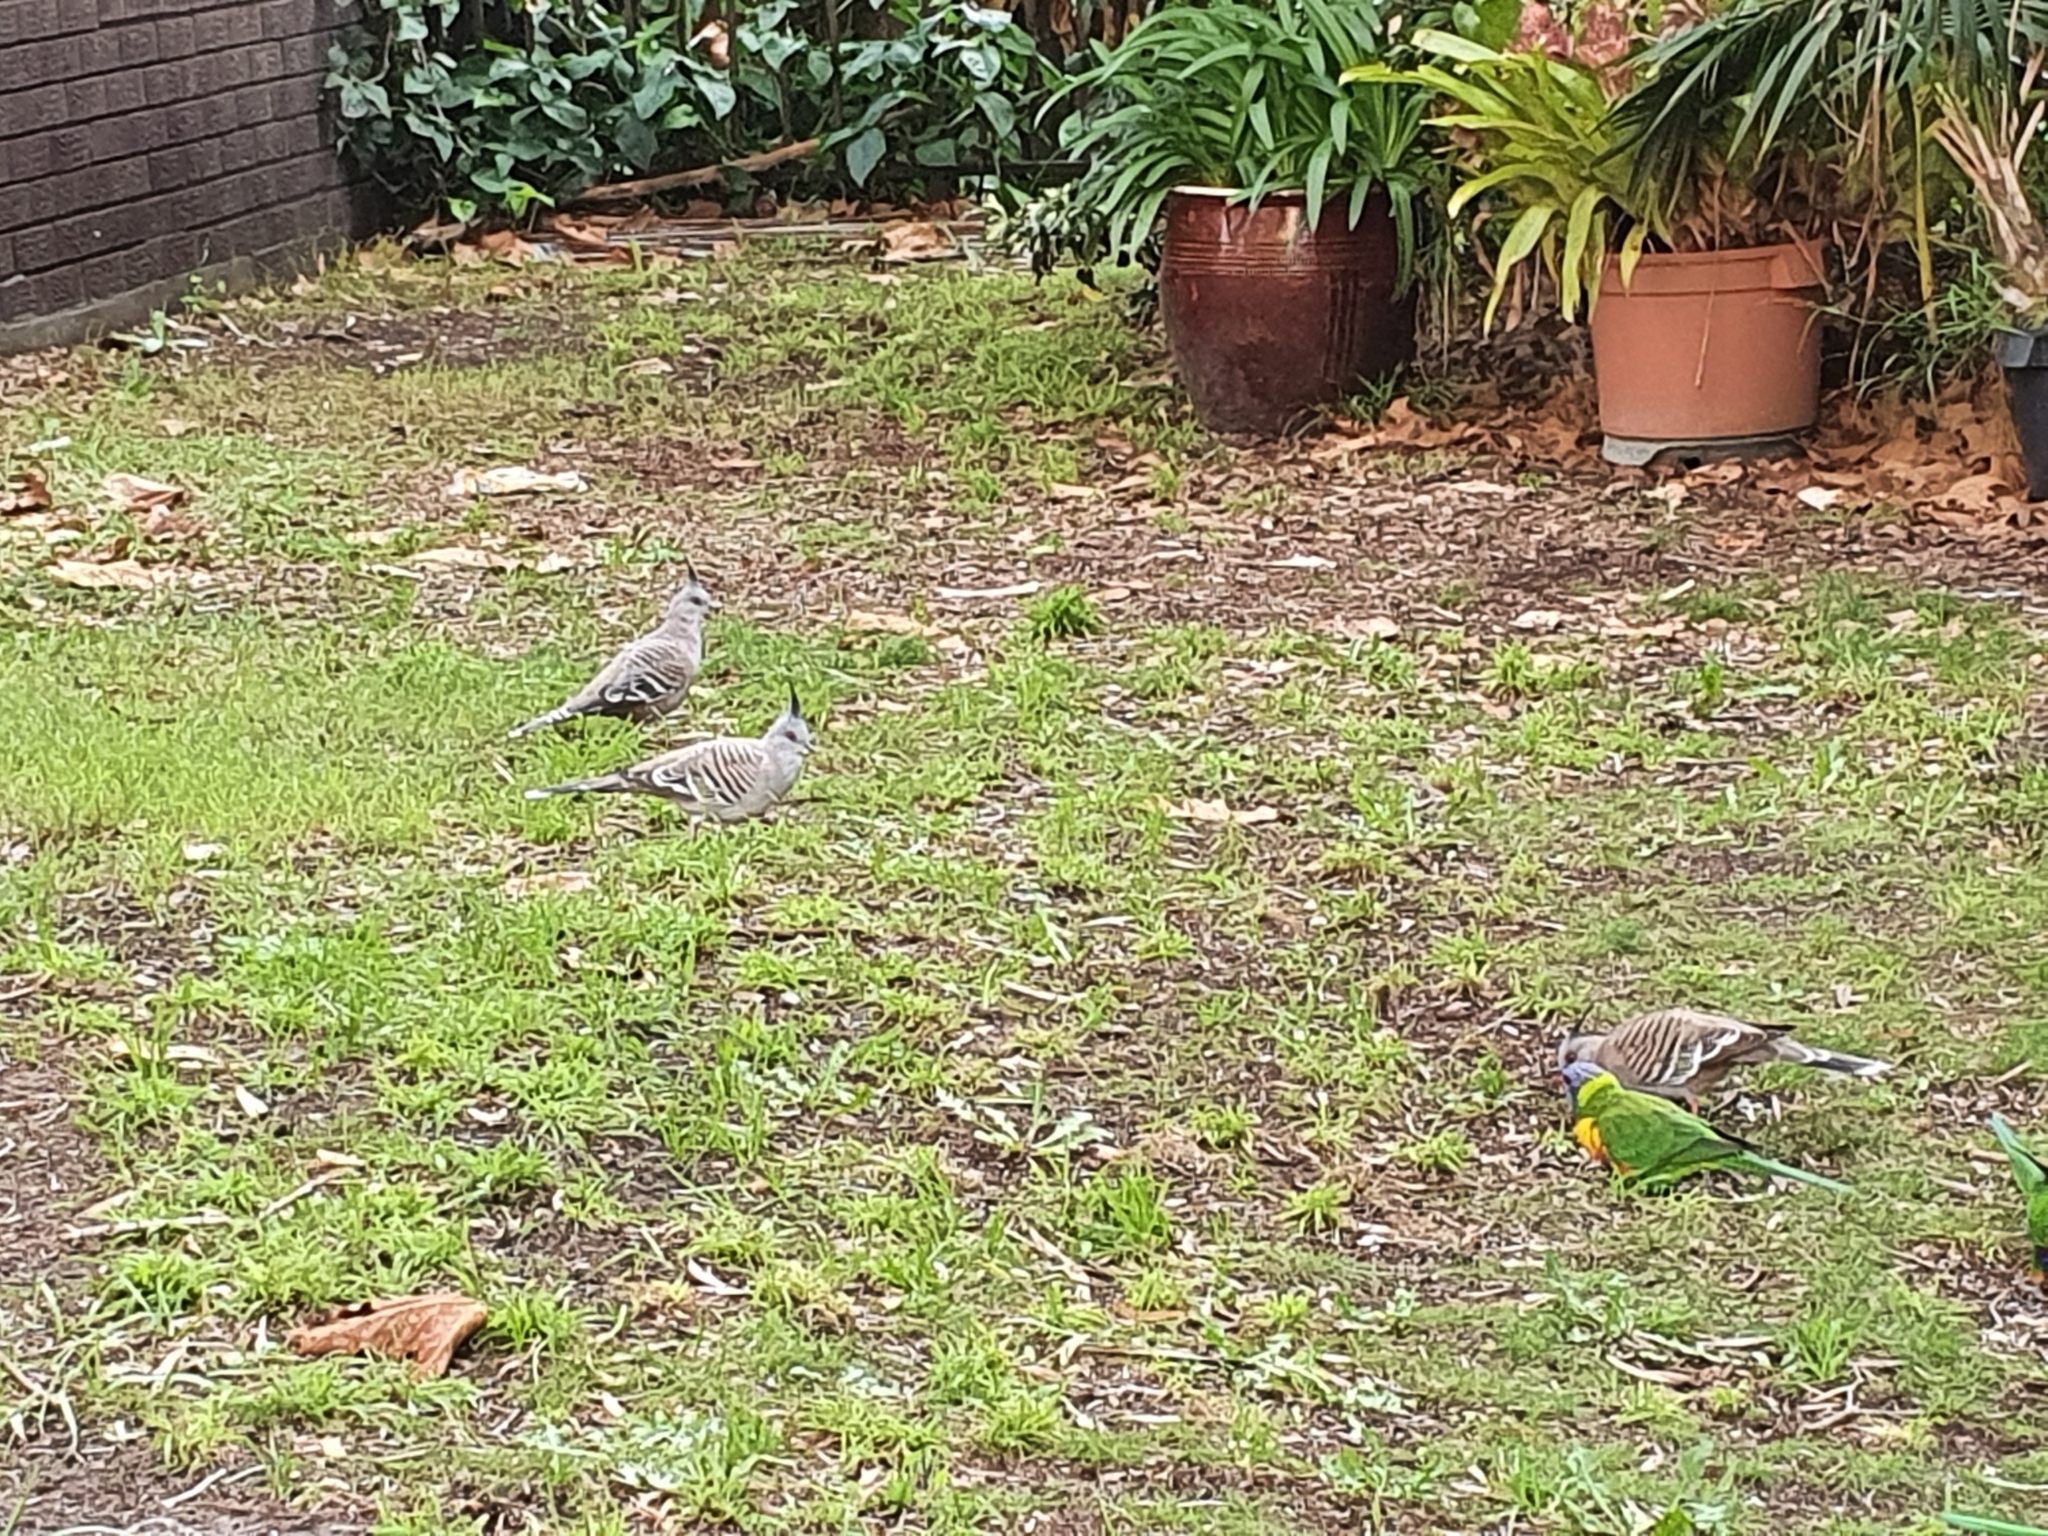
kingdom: Animalia
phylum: Chordata
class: Aves
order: Columbiformes
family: Columbidae
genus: Ocyphaps
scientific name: Ocyphaps lophotes
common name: Crested pigeon
